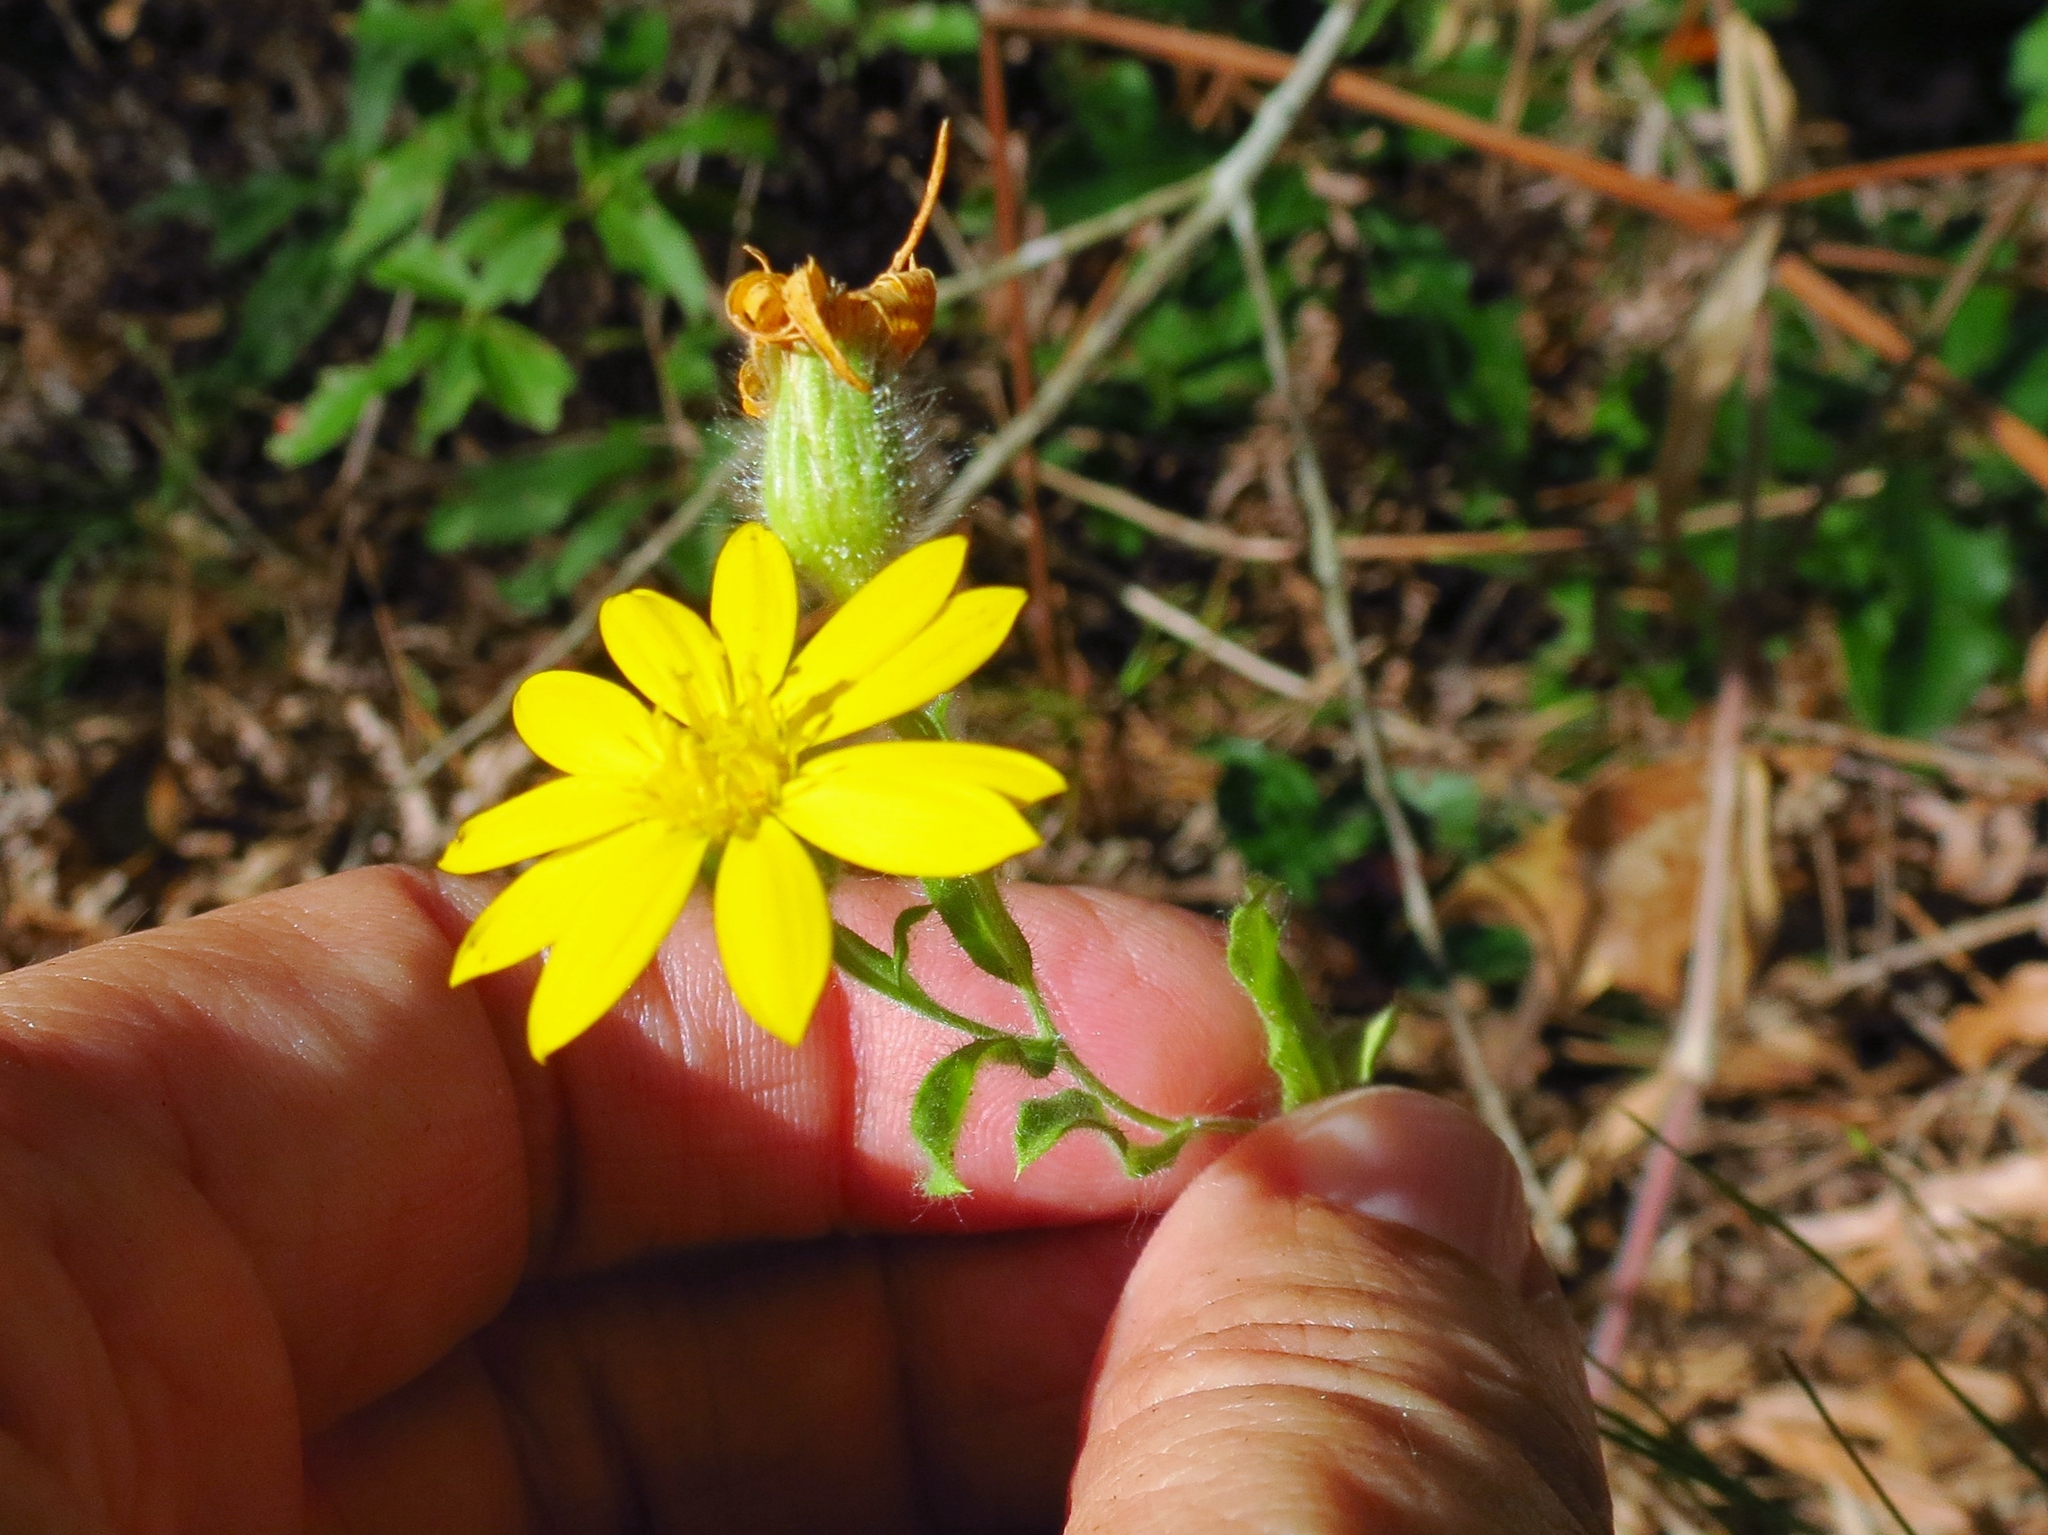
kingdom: Plantae
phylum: Tracheophyta
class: Magnoliopsida
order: Asterales
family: Asteraceae
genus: Bradburia
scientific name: Bradburia pilosa
